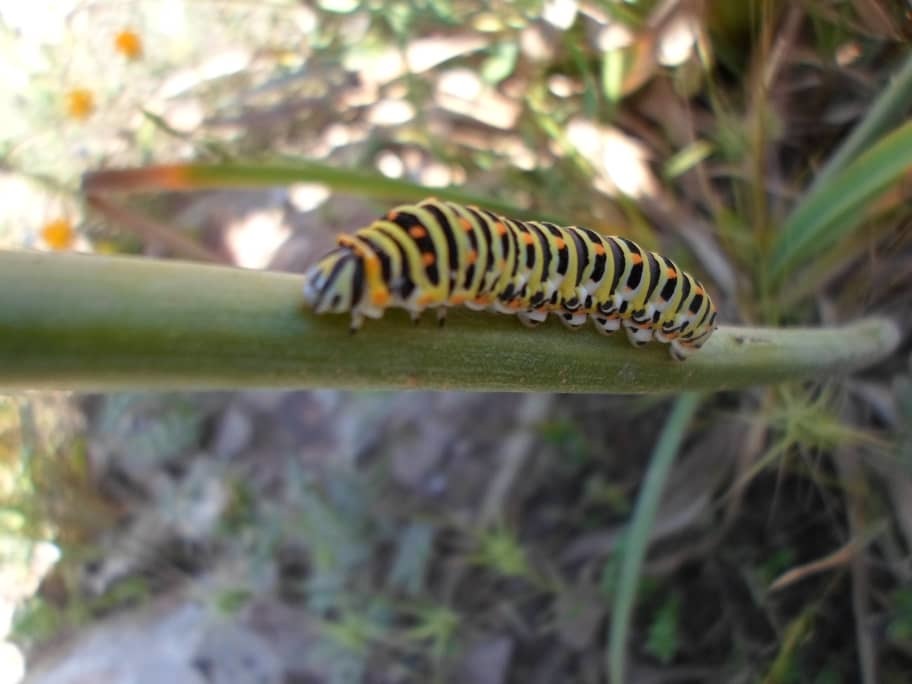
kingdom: Animalia
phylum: Arthropoda
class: Insecta
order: Lepidoptera
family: Papilionidae
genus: Papilio
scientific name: Papilio machaon
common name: Swallowtail
